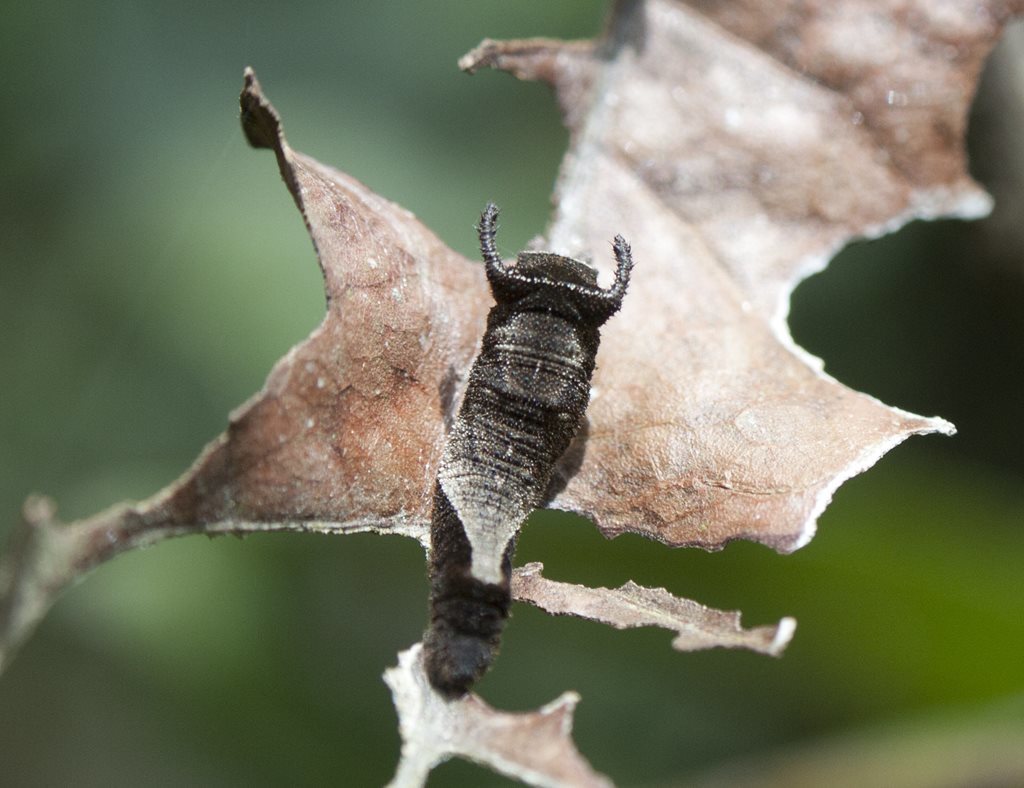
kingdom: Animalia
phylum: Arthropoda
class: Insecta
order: Lepidoptera
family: Nymphalidae
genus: Phaedyma
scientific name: Phaedyma shepherdi
